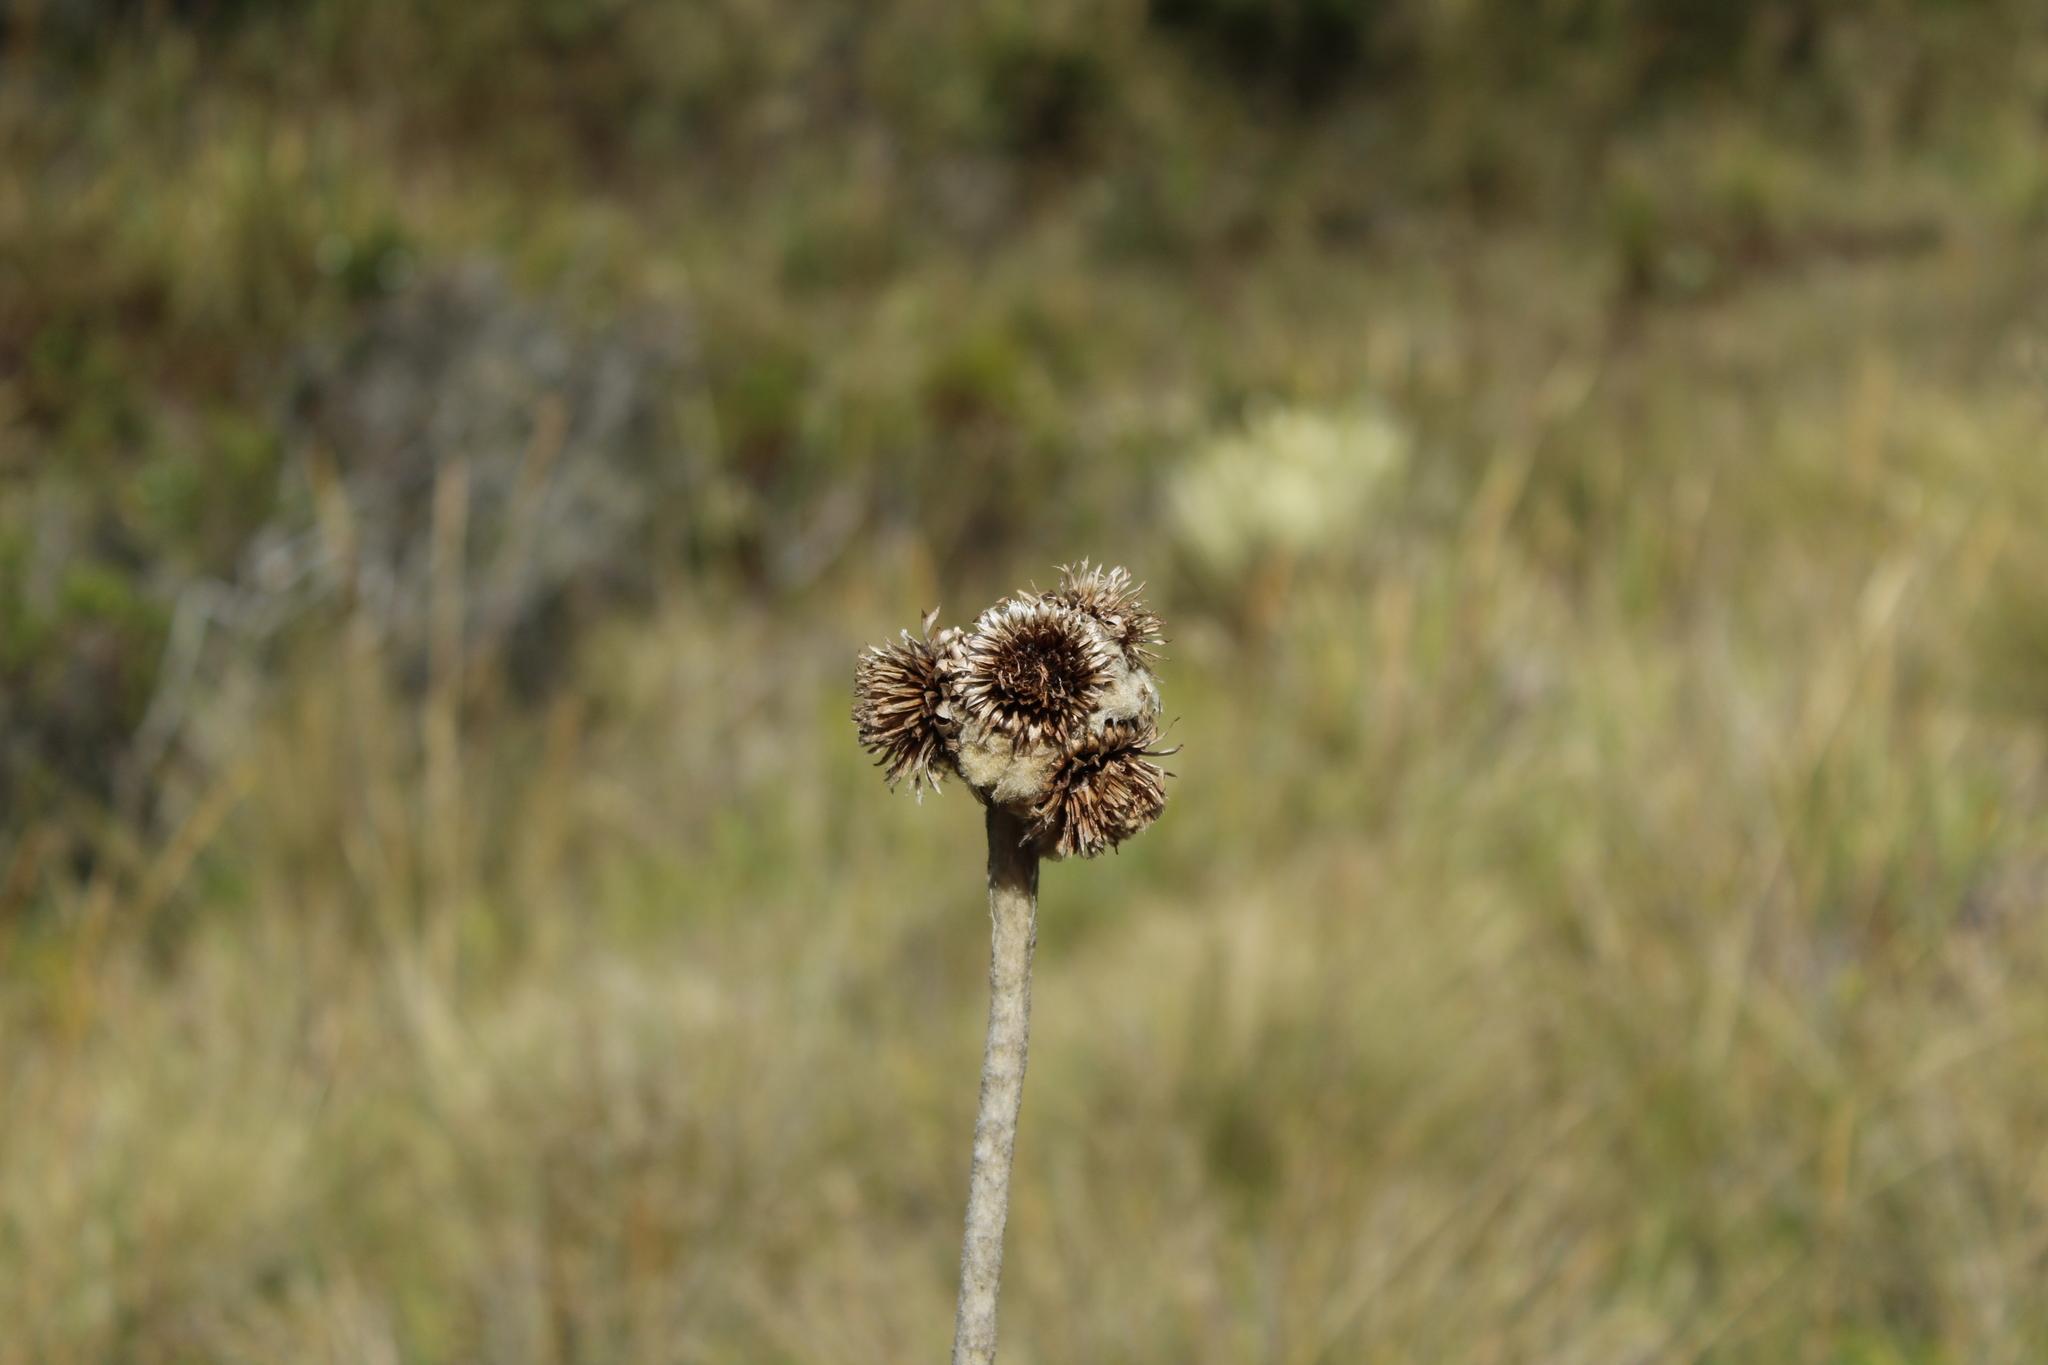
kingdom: Plantae
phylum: Tracheophyta
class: Magnoliopsida
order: Asterales
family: Asteraceae
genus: Espeletia
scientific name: Espeletia congestiflora
